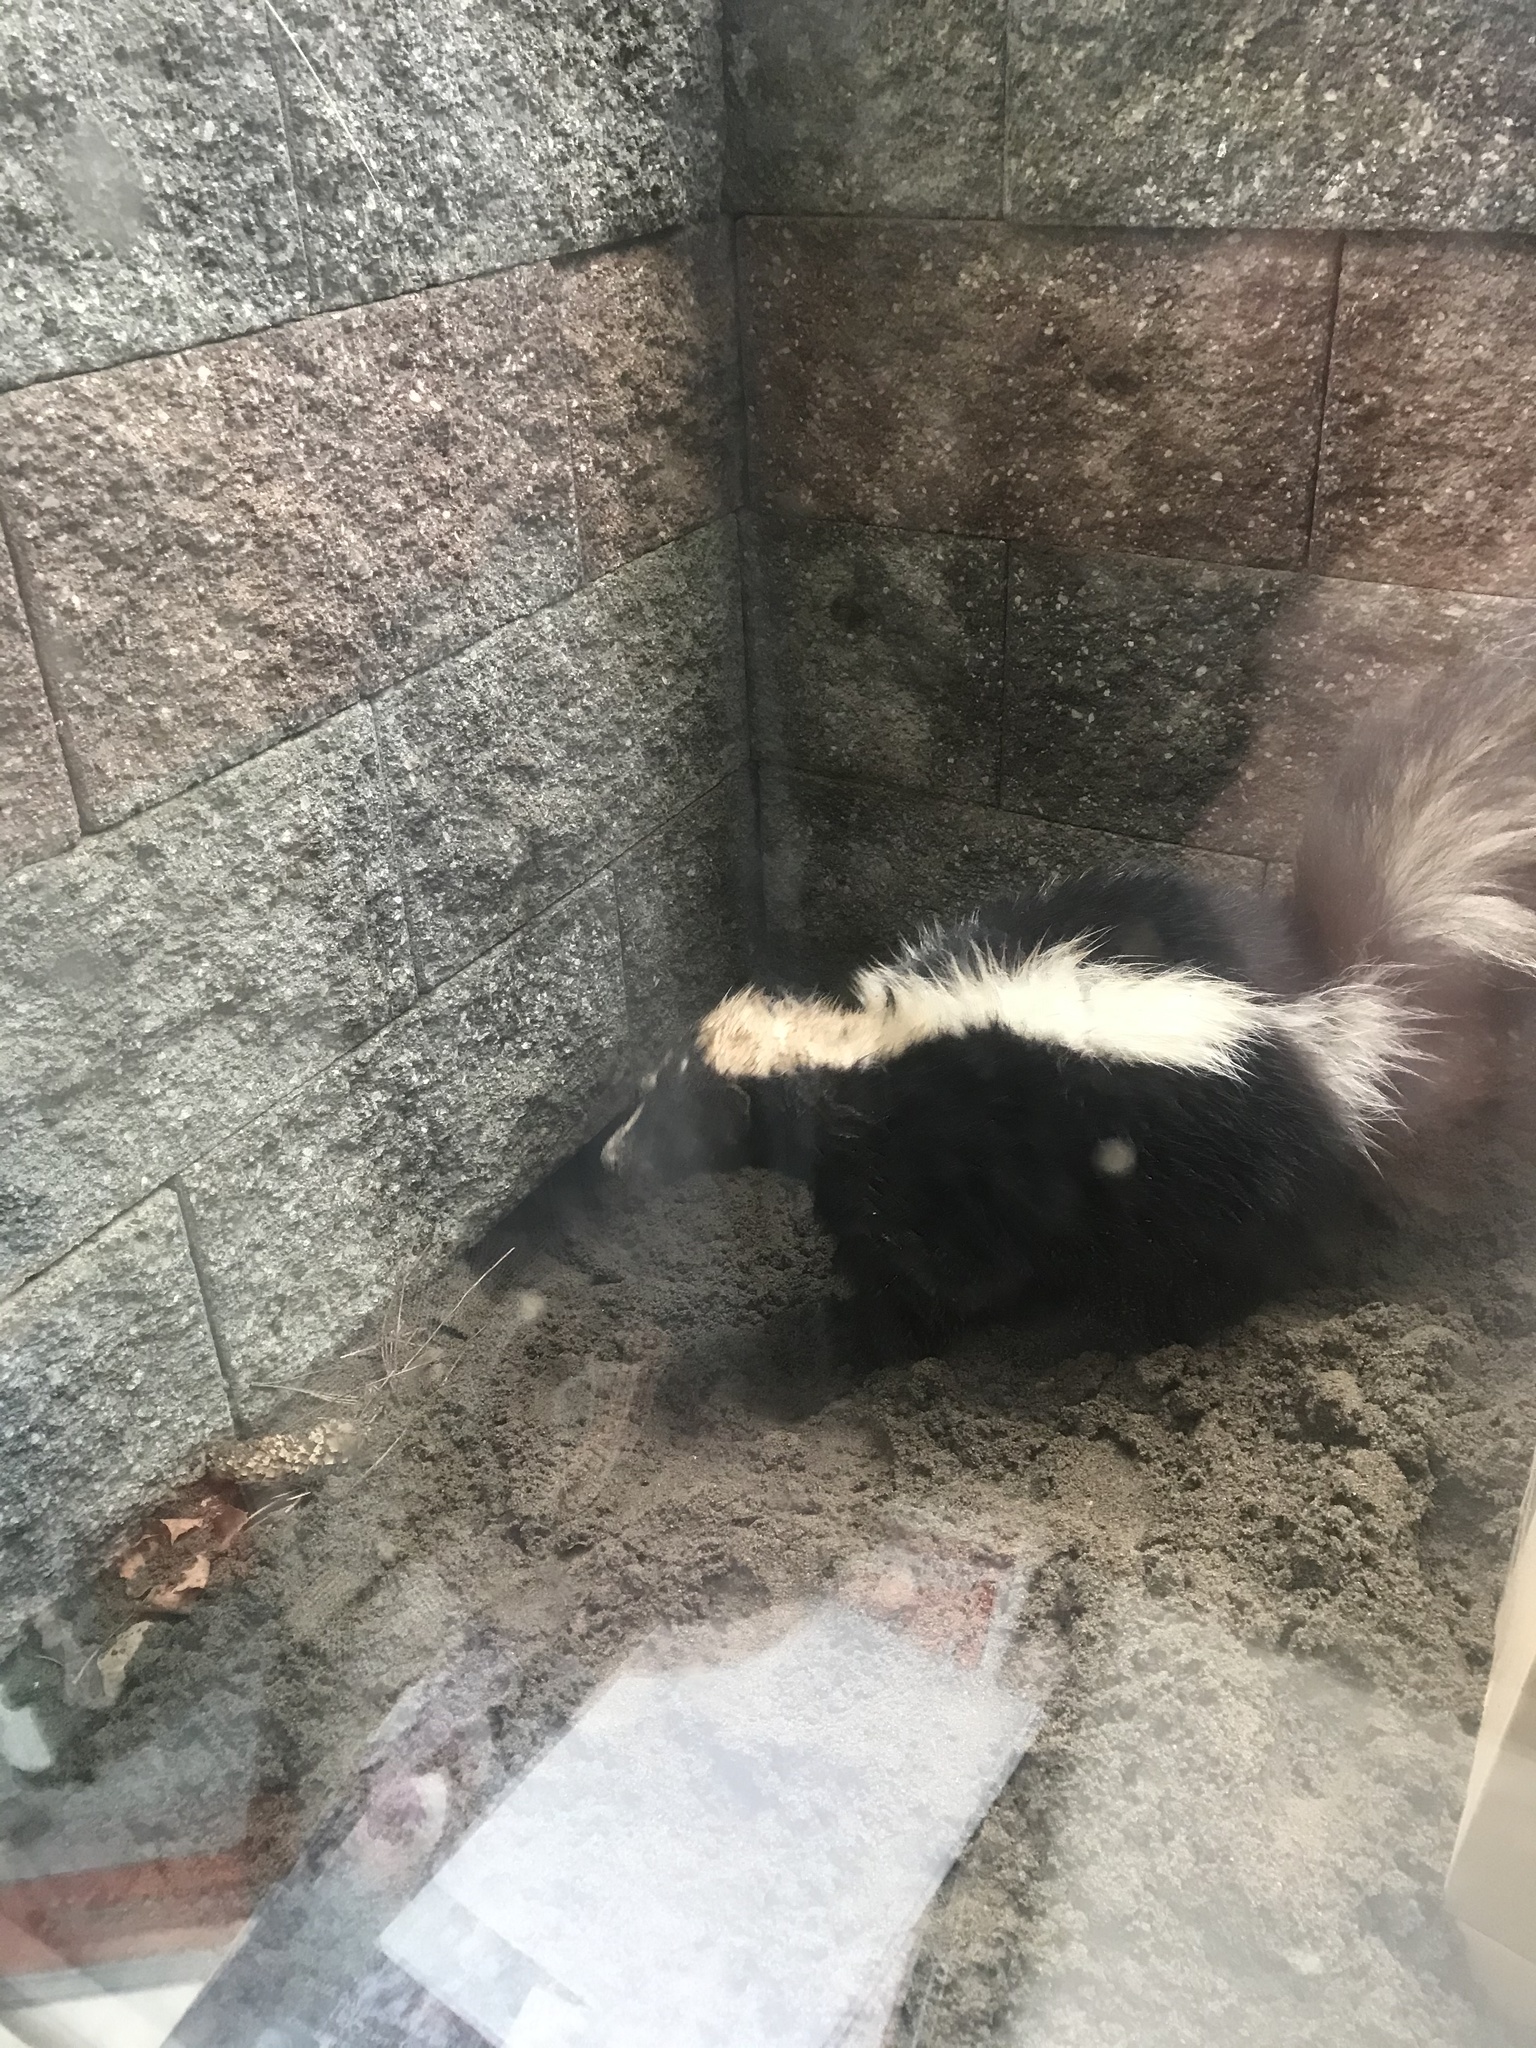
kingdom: Animalia
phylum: Chordata
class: Mammalia
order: Carnivora
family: Mephitidae
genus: Mephitis
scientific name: Mephitis mephitis
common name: Striped skunk
